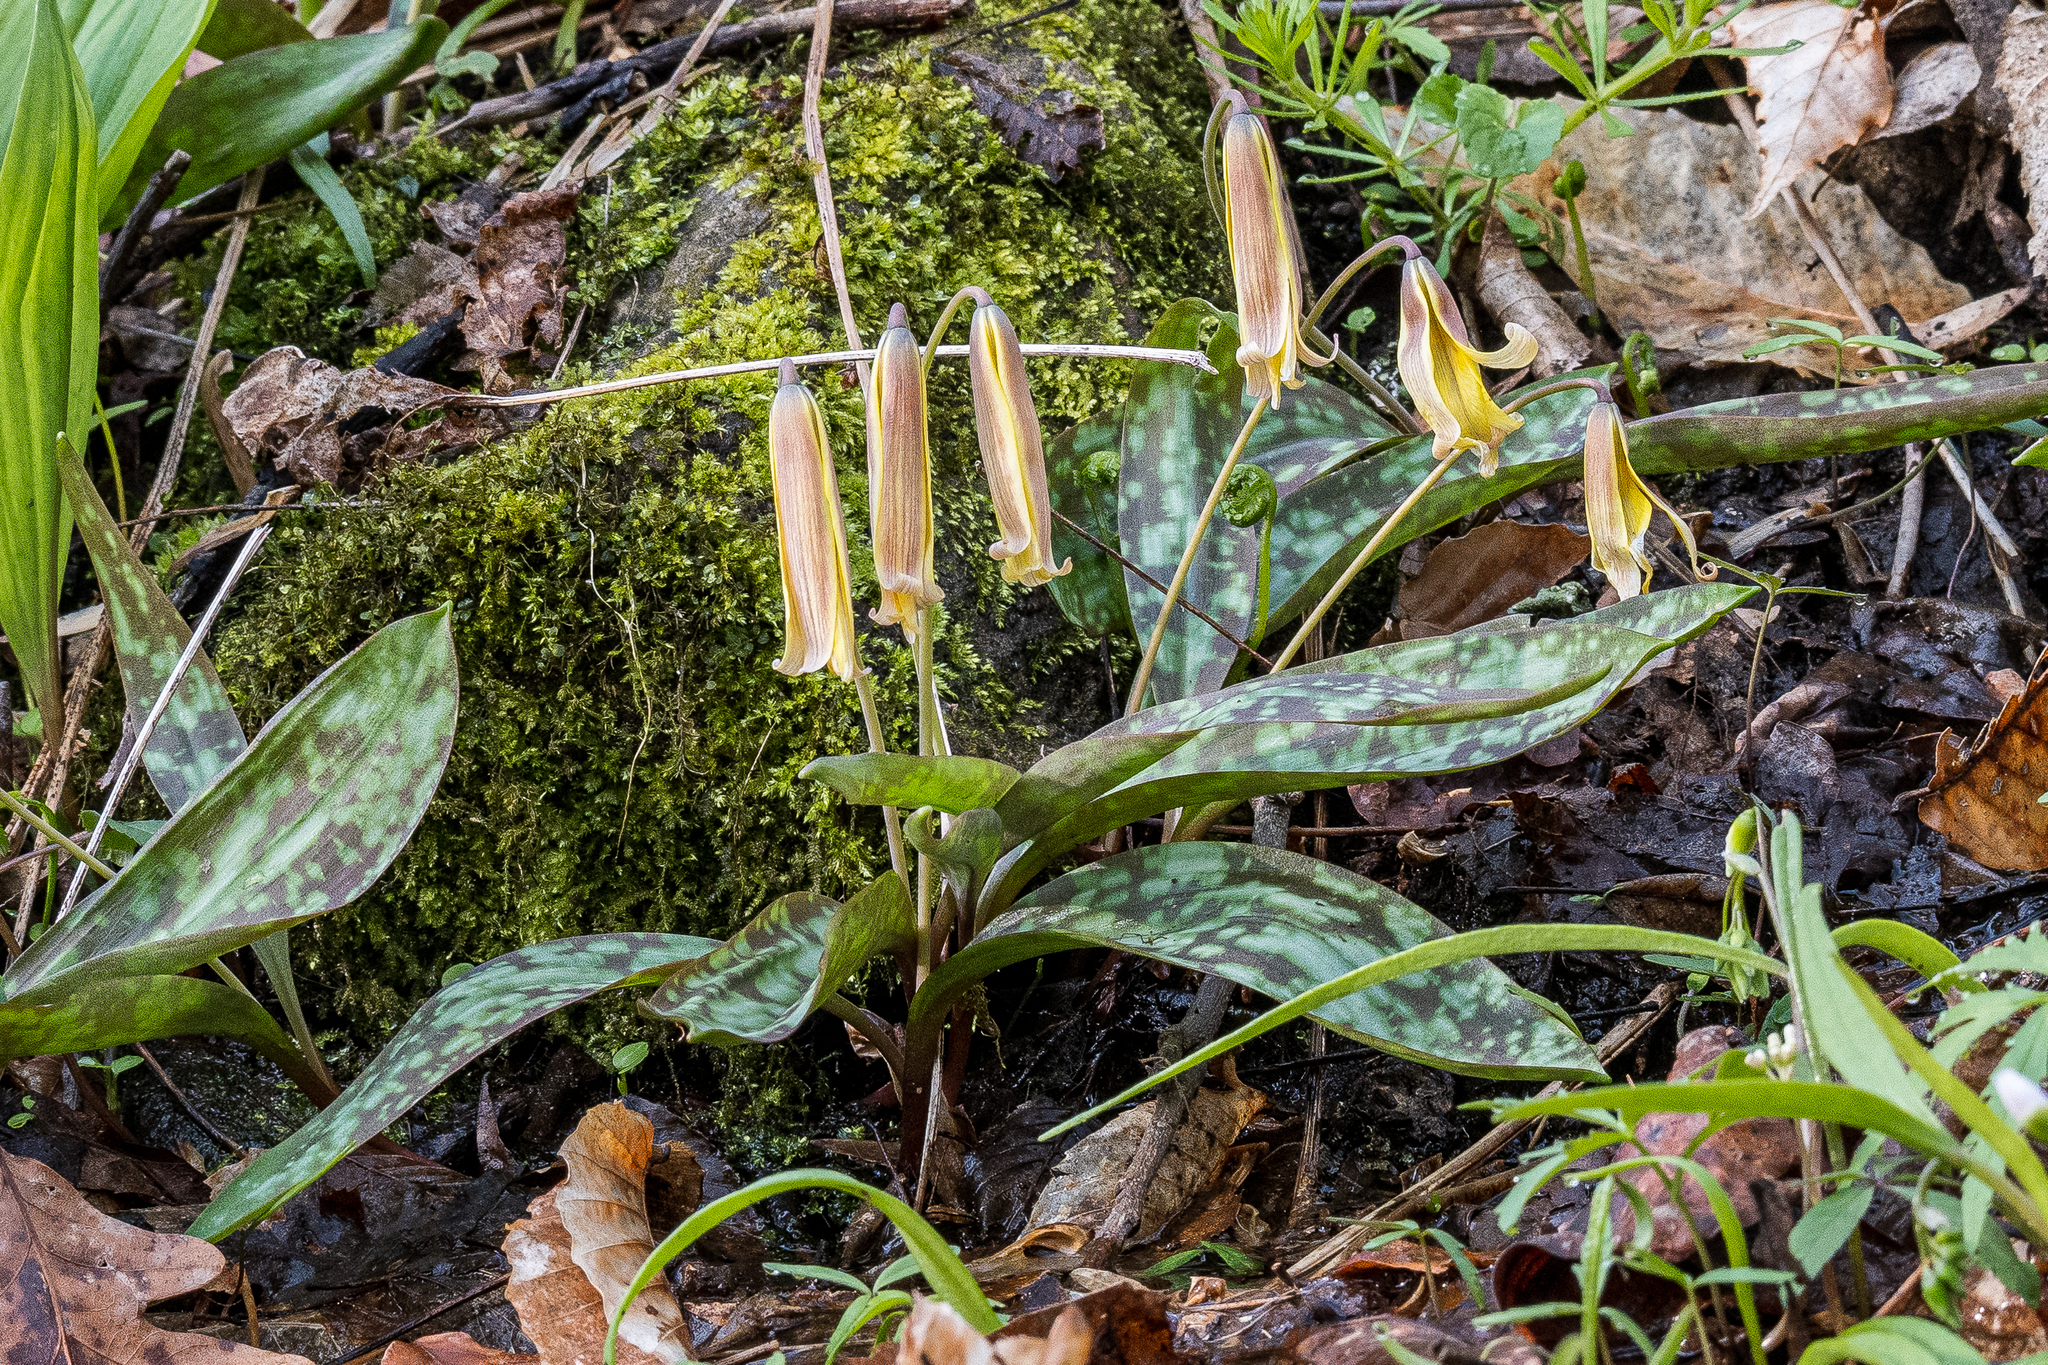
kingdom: Plantae
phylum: Tracheophyta
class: Liliopsida
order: Liliales
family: Liliaceae
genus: Erythronium
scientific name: Erythronium americanum
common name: Yellow adder's-tongue
